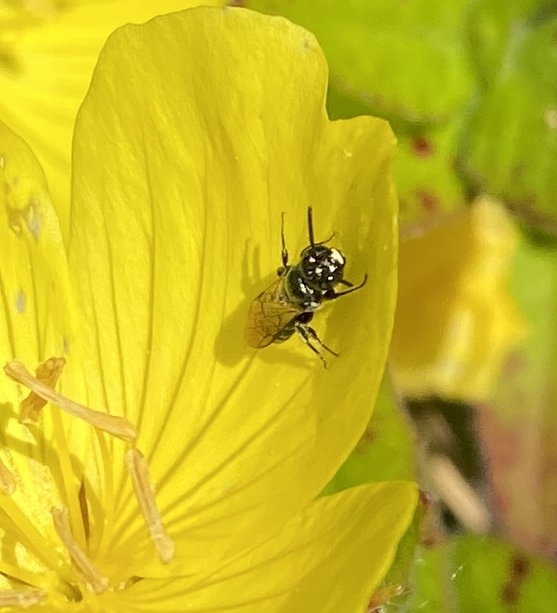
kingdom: Animalia
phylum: Arthropoda
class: Insecta
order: Hymenoptera
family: Apidae
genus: Ceratina
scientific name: Ceratina calcarata
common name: Spurred carpenter bee
